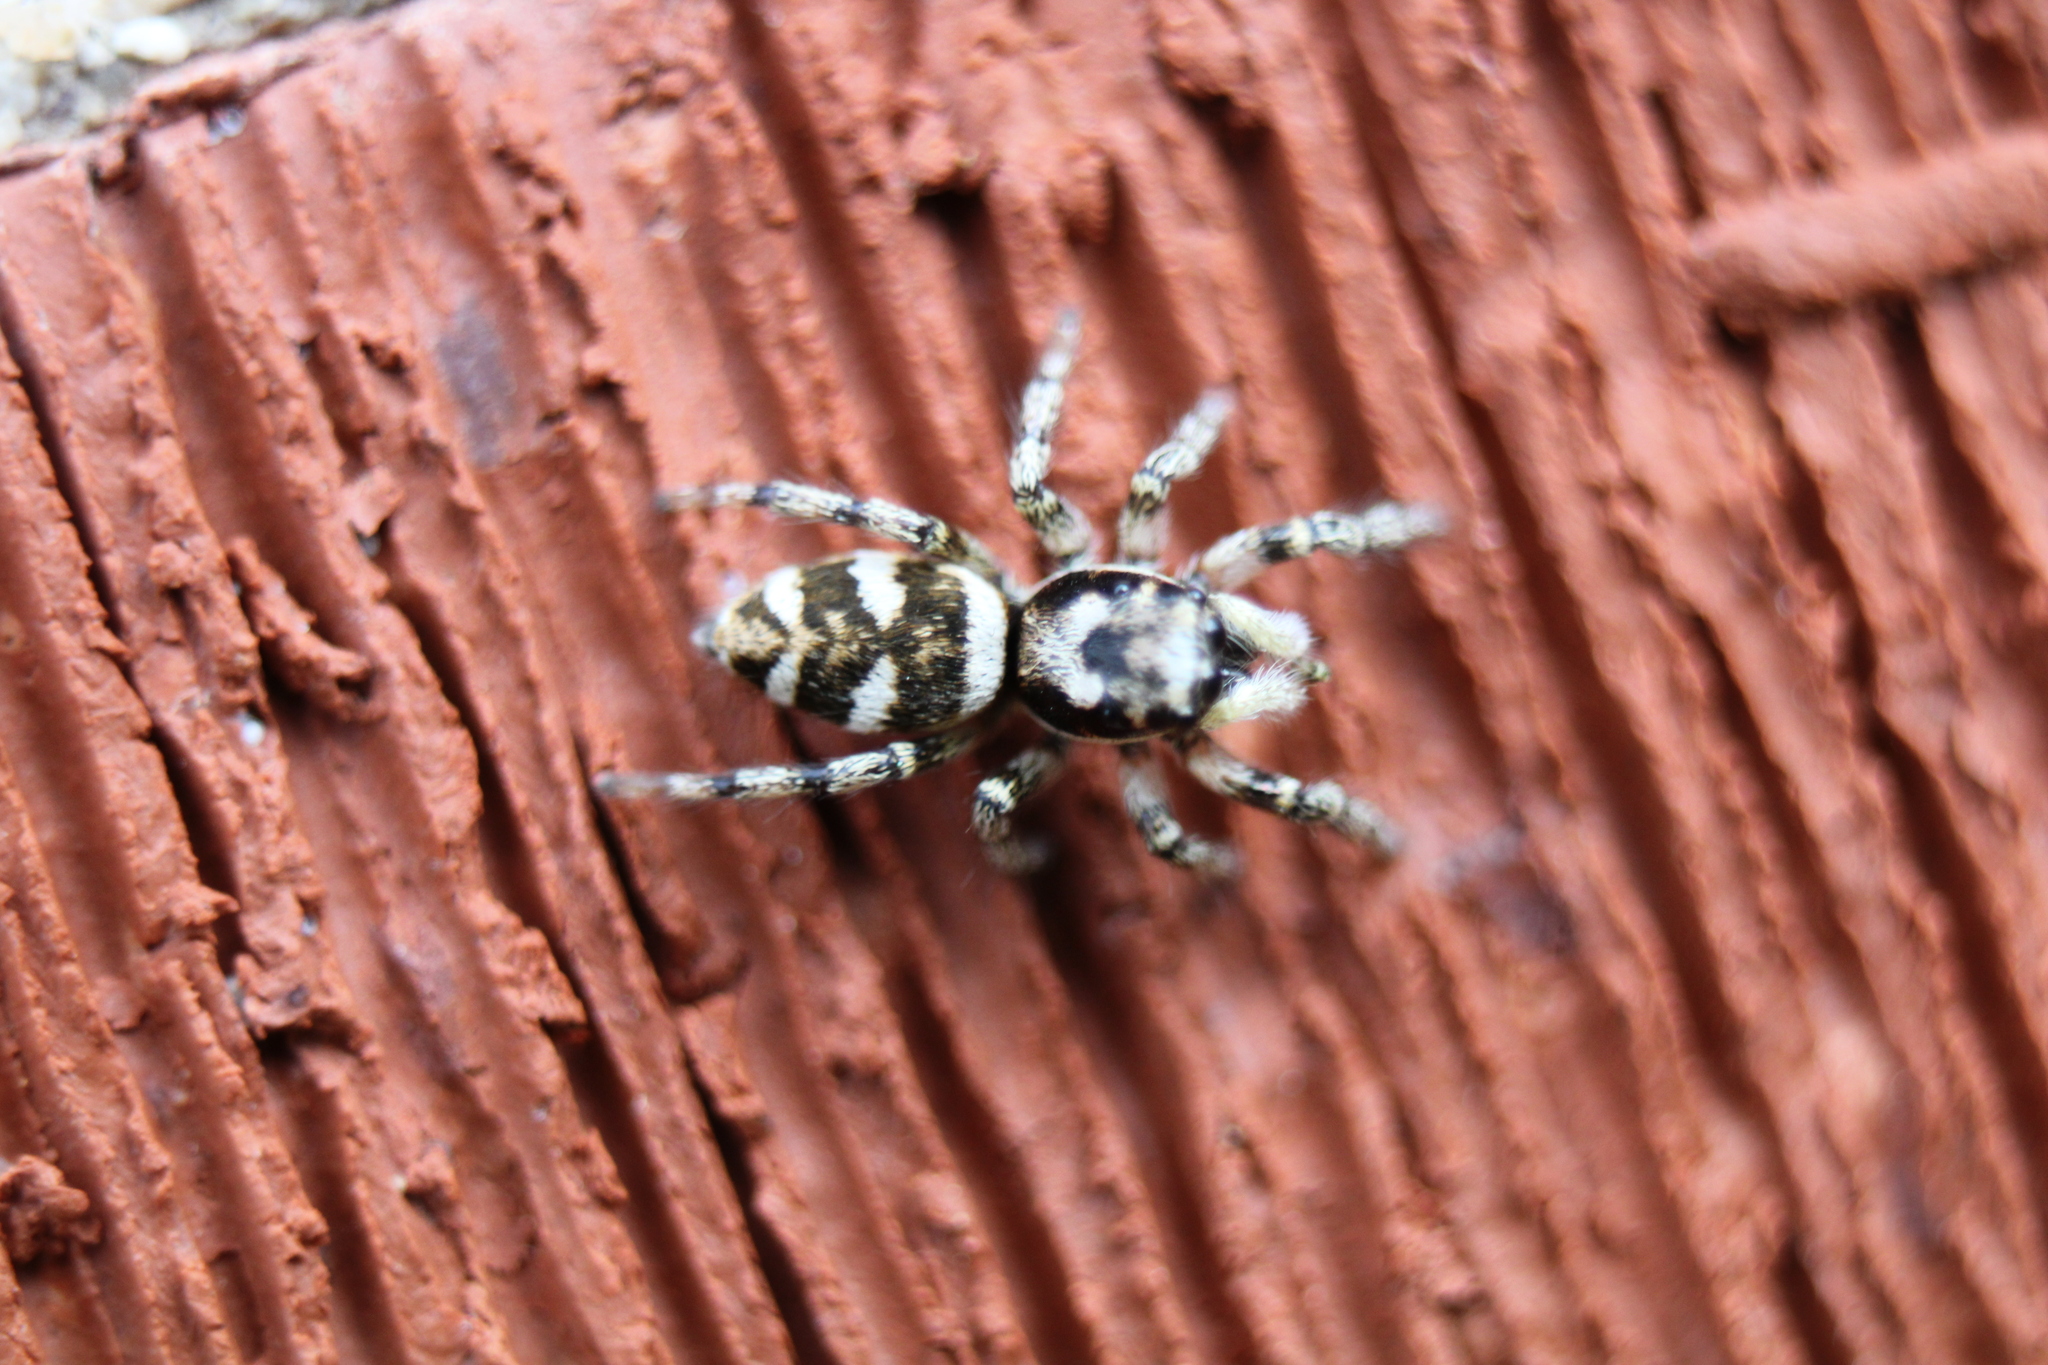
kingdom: Animalia
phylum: Arthropoda
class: Arachnida
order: Araneae
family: Salticidae
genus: Salticus
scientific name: Salticus scenicus
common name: Zebra jumper
